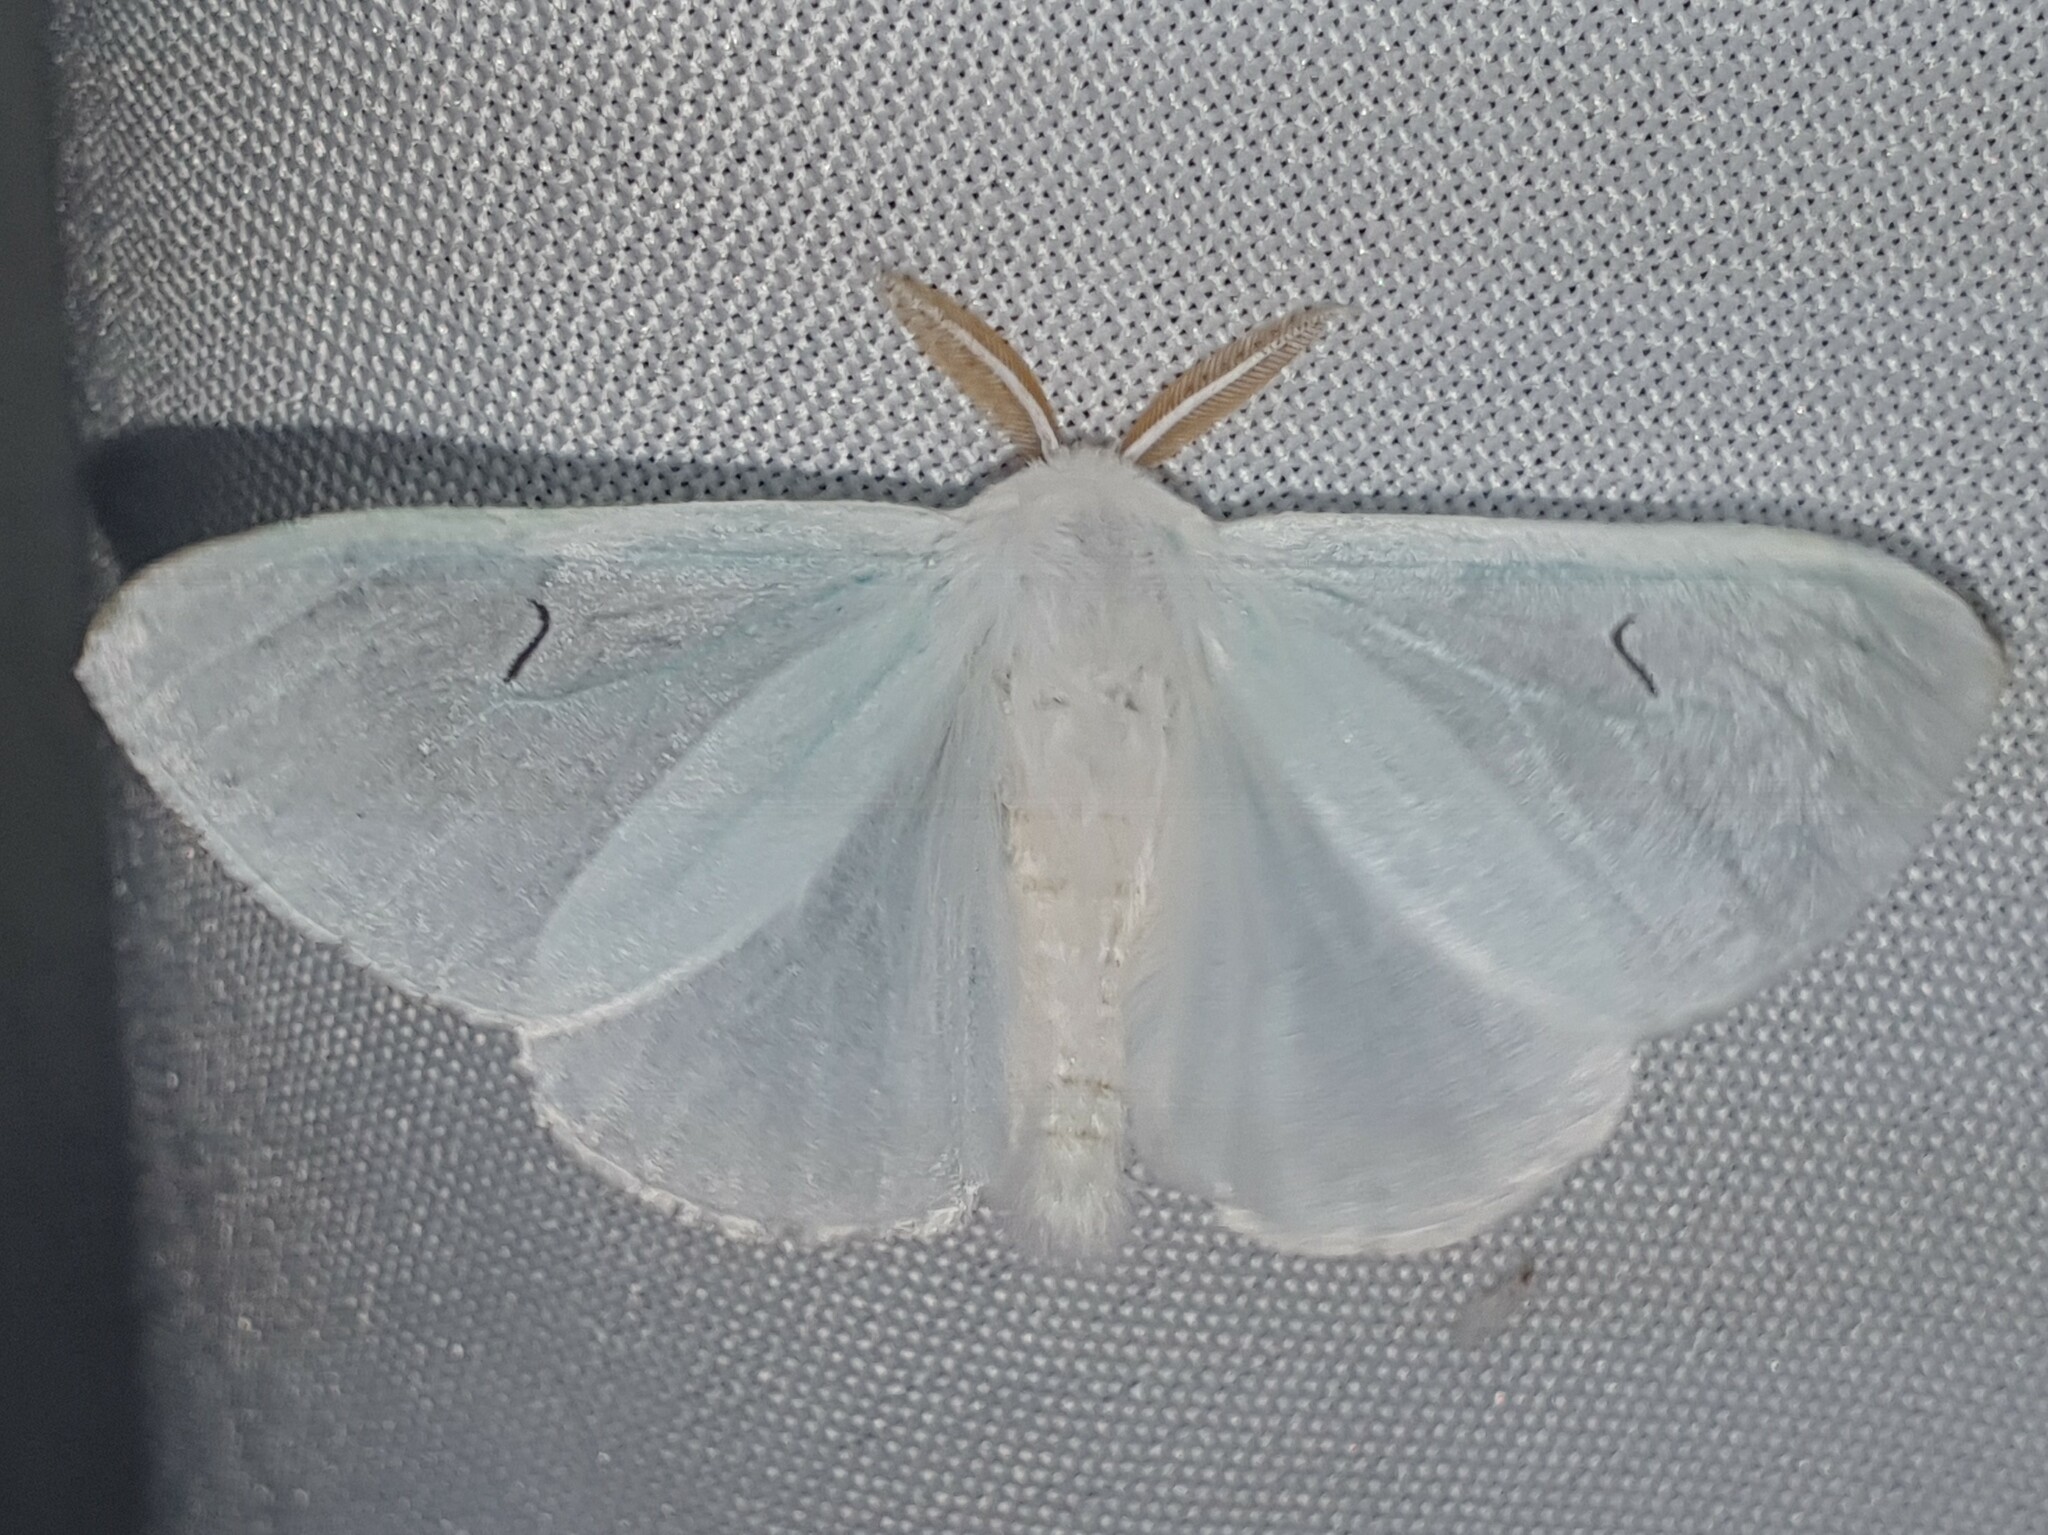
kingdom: Animalia
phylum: Arthropoda
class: Insecta
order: Lepidoptera
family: Erebidae
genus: Arctornis
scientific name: Arctornis l-nigrum
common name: Black v moth
